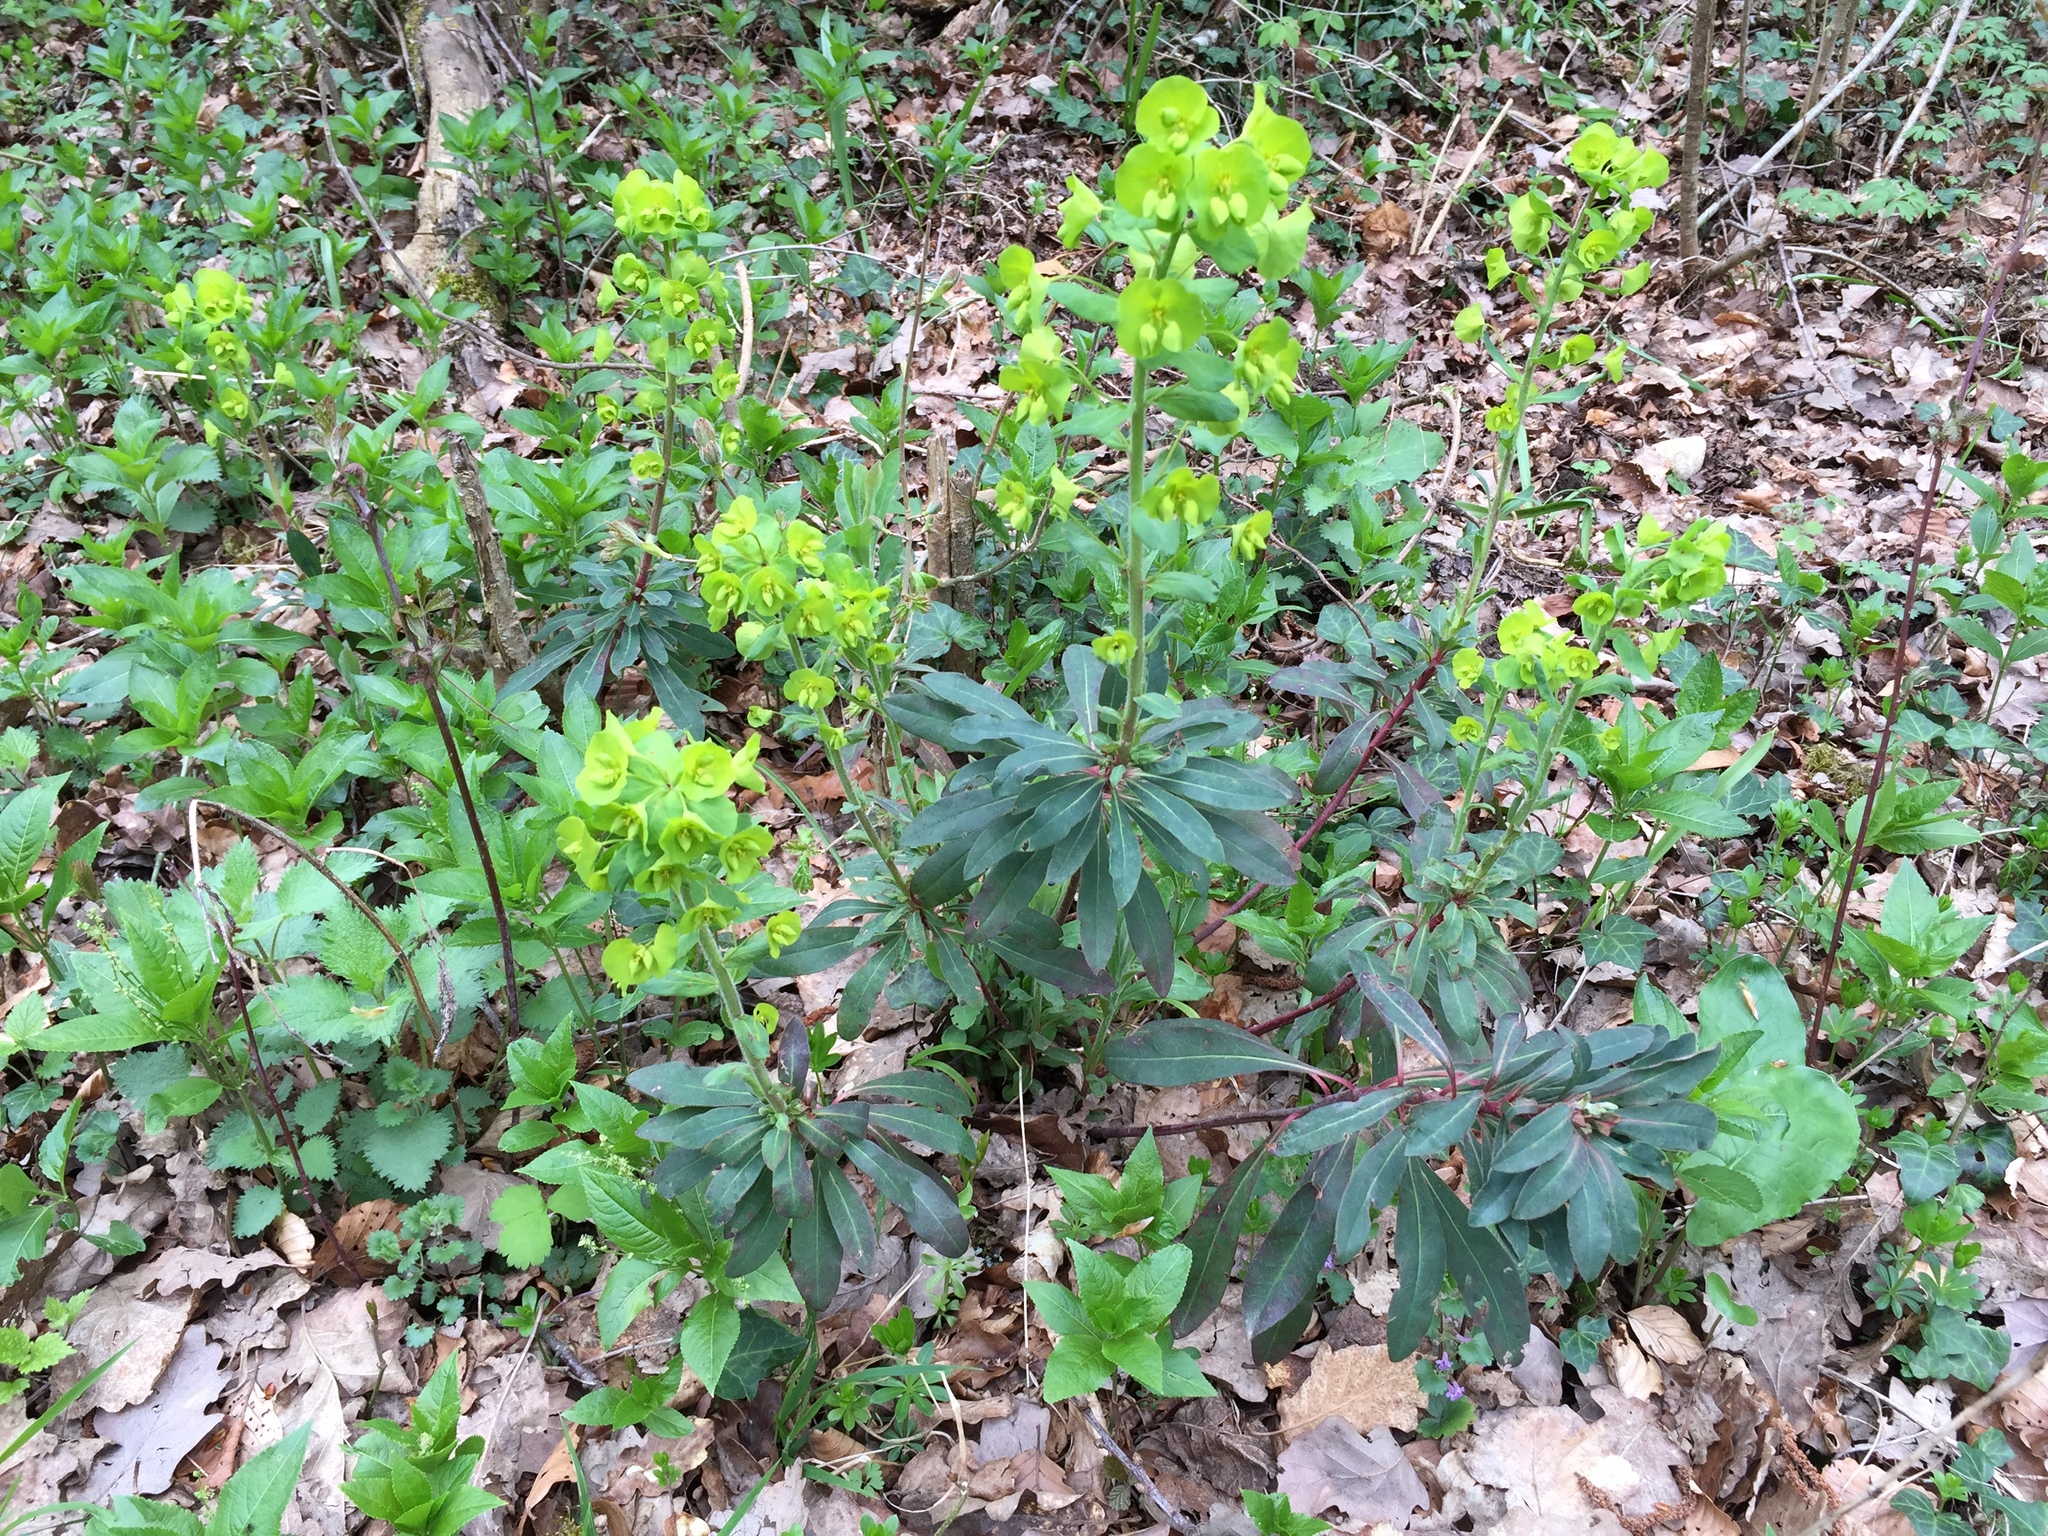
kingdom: Plantae
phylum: Tracheophyta
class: Magnoliopsida
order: Malpighiales
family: Euphorbiaceae
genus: Euphorbia
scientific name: Euphorbia amygdaloides
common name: Wood spurge
